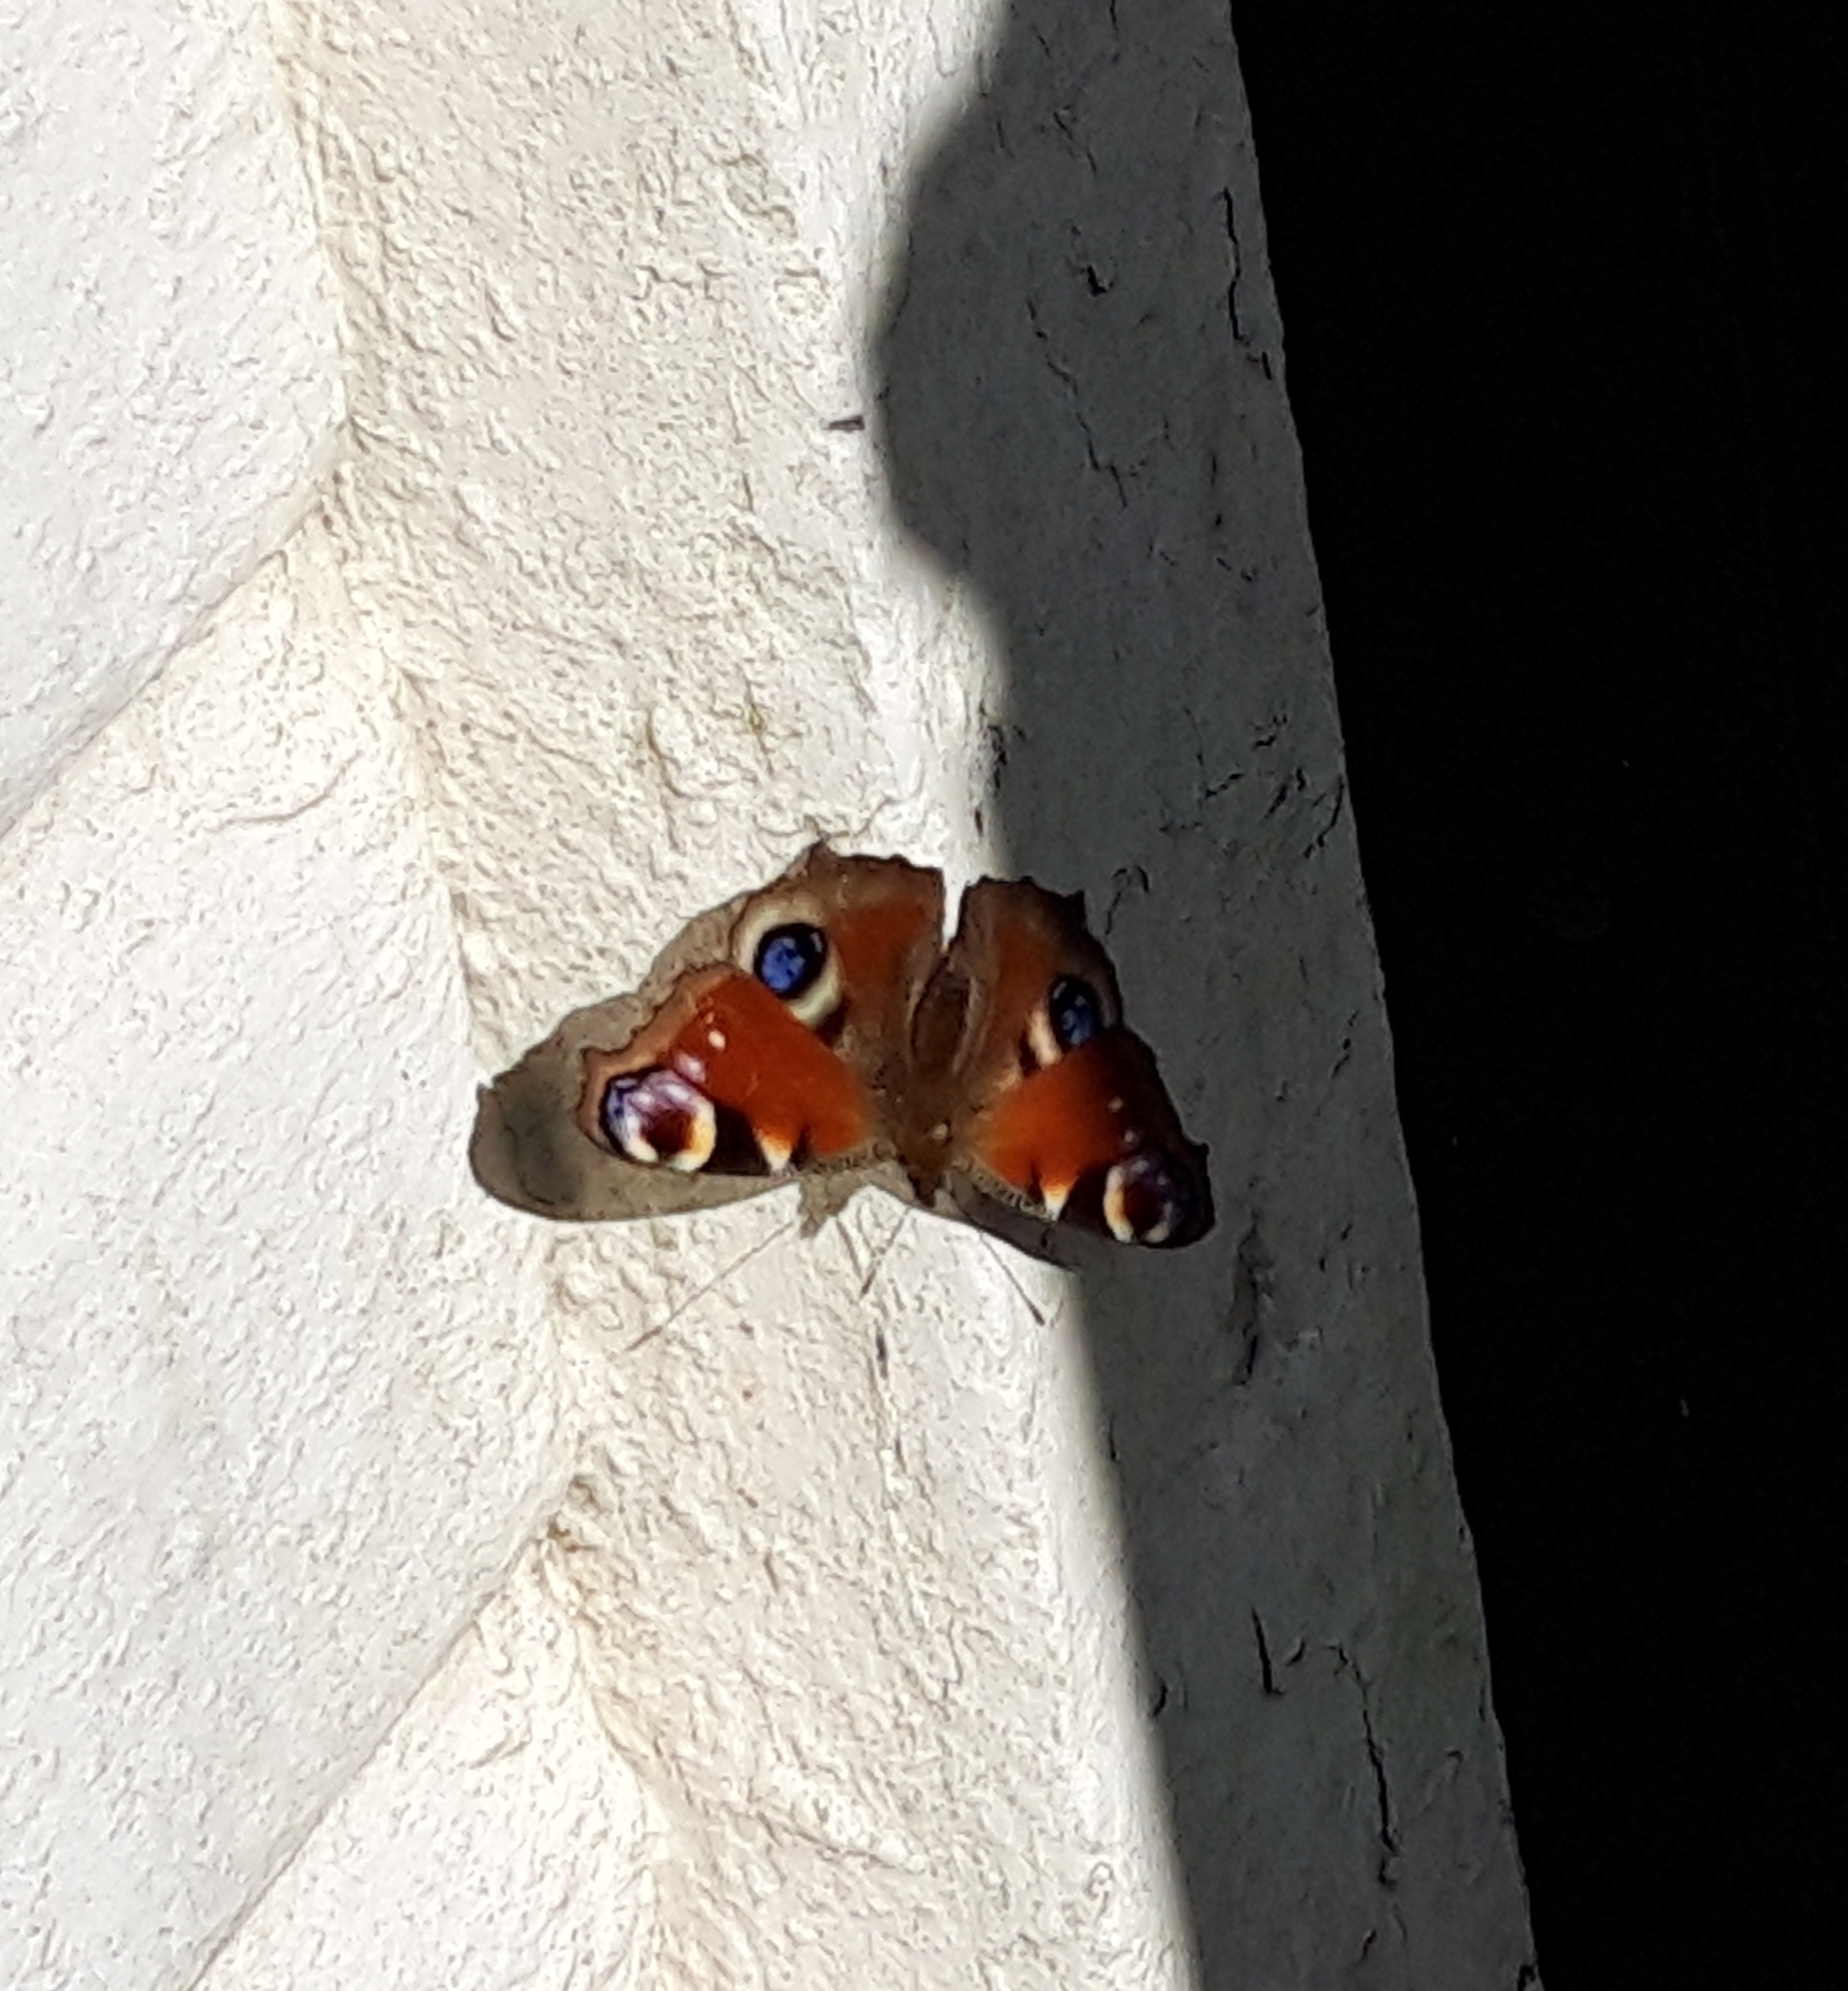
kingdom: Animalia
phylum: Arthropoda
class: Insecta
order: Lepidoptera
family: Nymphalidae
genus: Aglais
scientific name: Aglais io
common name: Peacock
